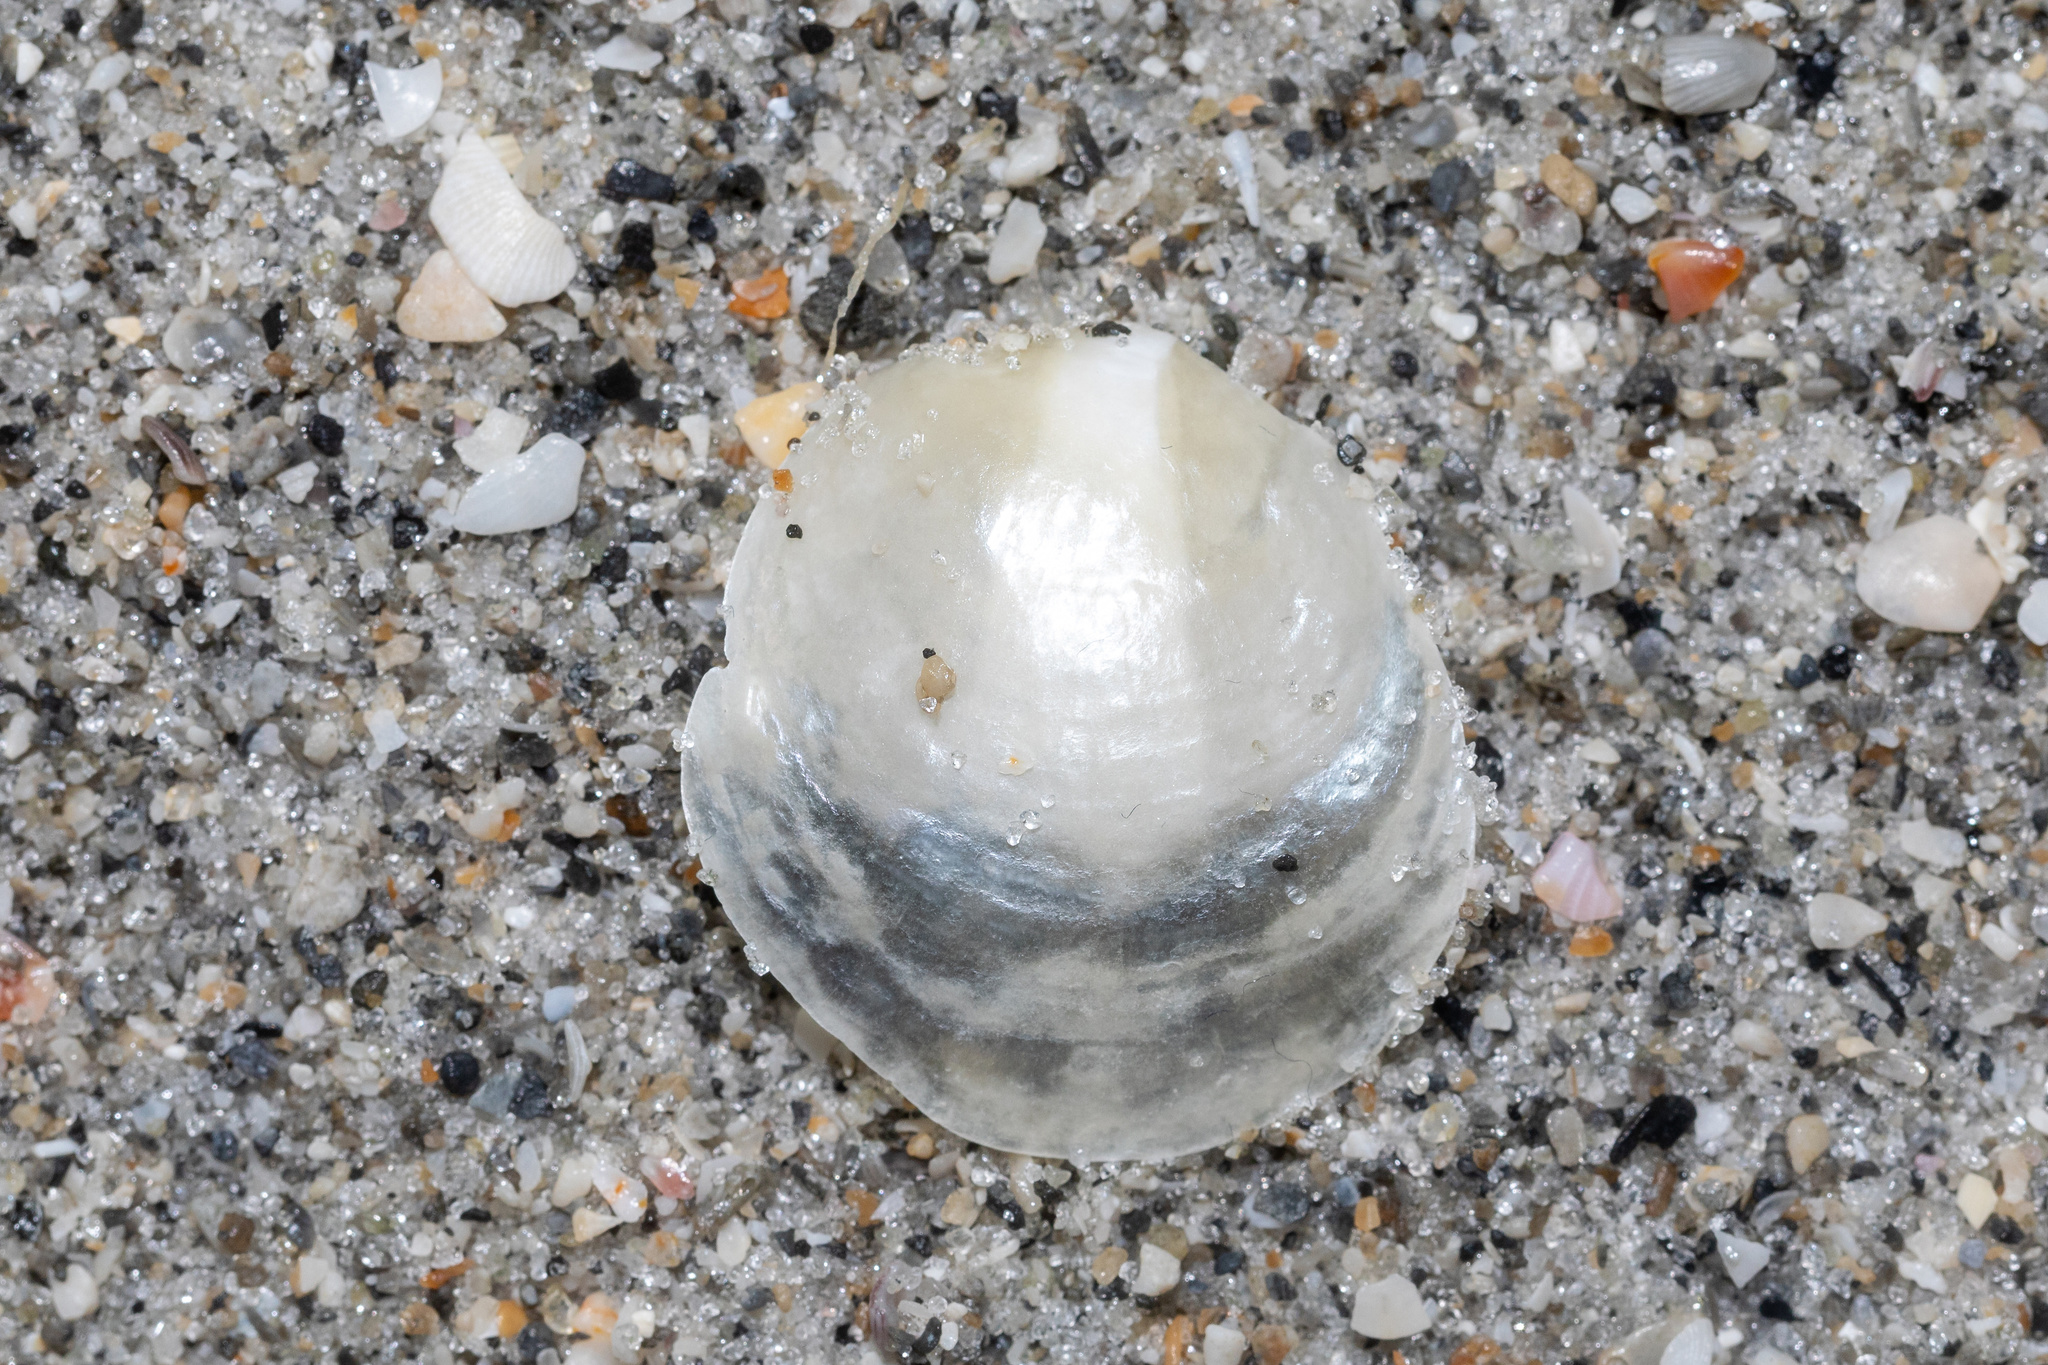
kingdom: Animalia
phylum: Mollusca
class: Bivalvia
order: Pectinida
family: Anomiidae
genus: Anomia
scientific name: Anomia simplex
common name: Common jingle shell
